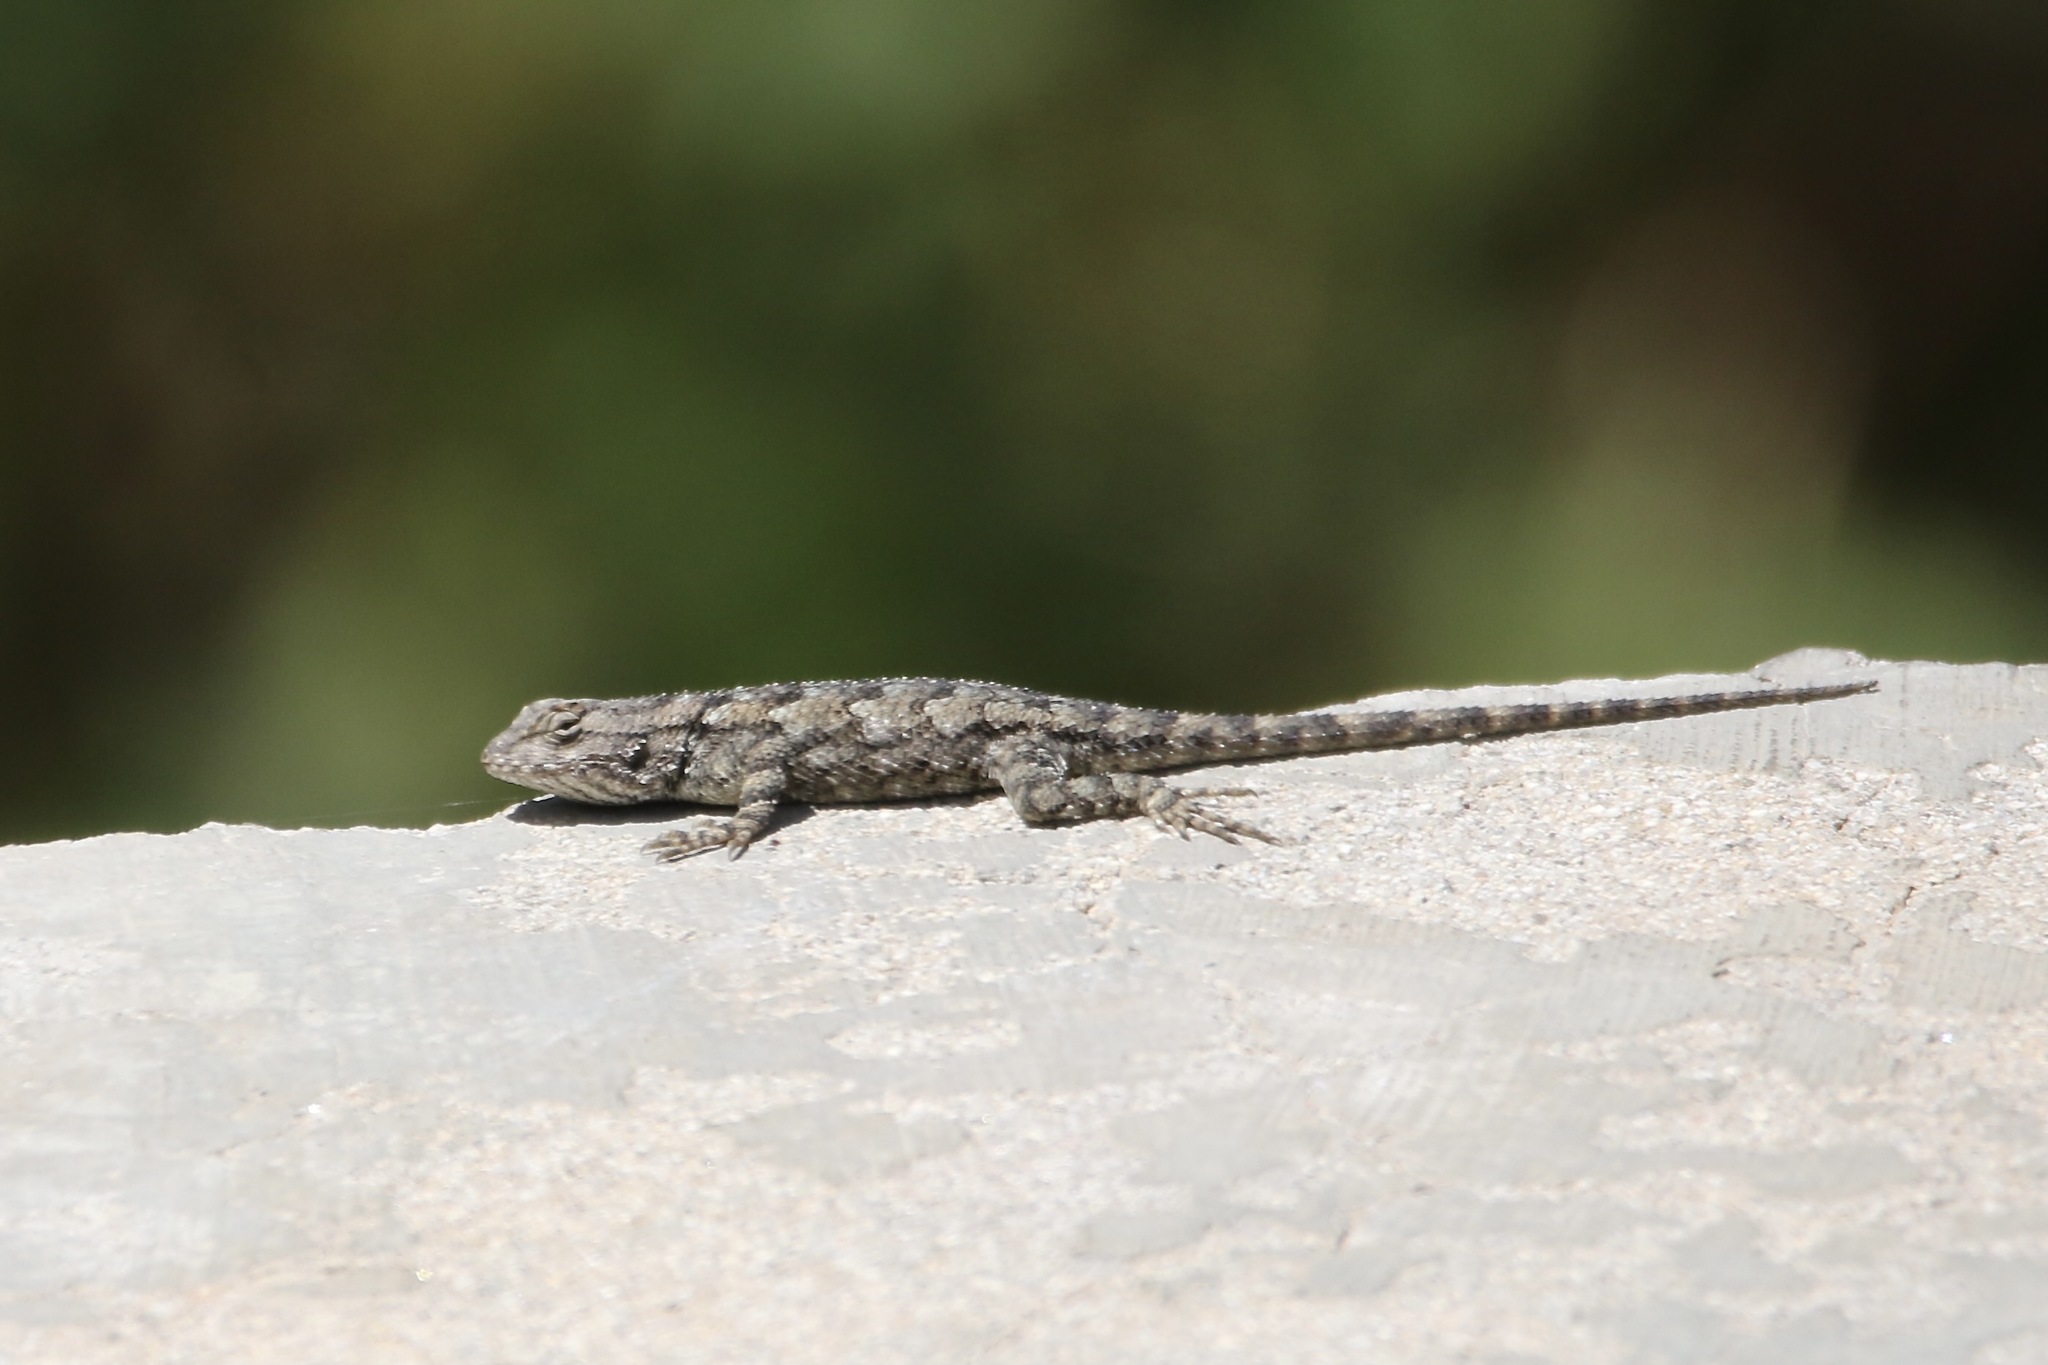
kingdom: Animalia
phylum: Chordata
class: Squamata
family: Phrynosomatidae
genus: Sceloporus
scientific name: Sceloporus clarkii
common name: Clark's spiny lizard
